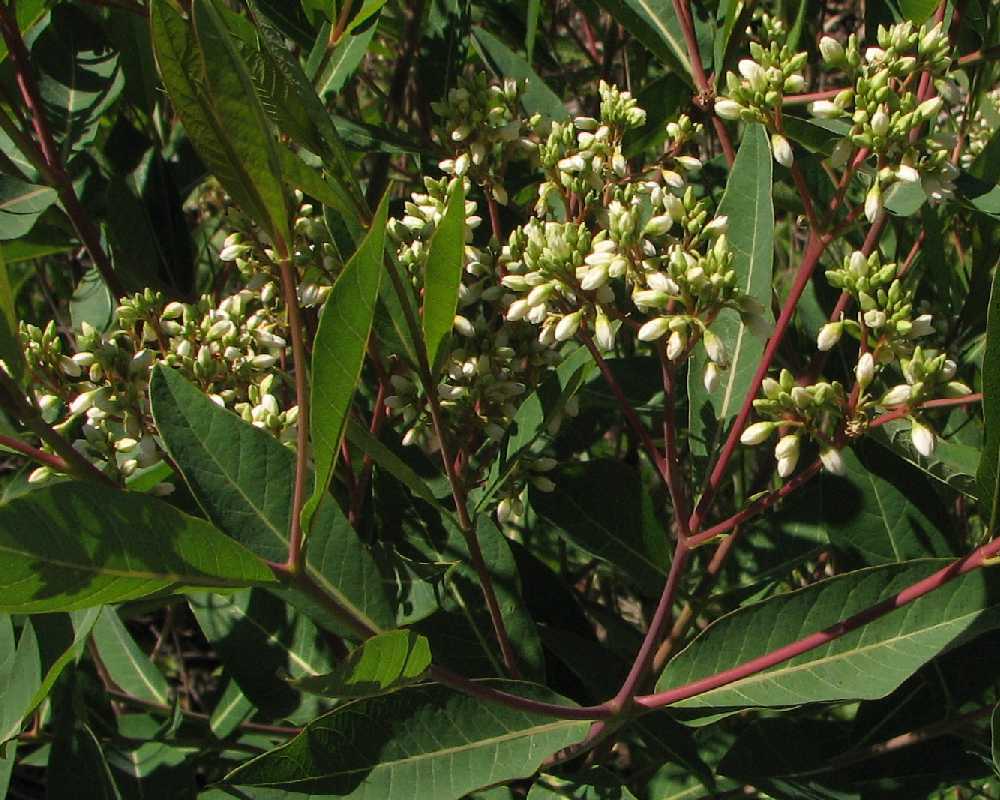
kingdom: Plantae
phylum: Tracheophyta
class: Magnoliopsida
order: Gentianales
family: Apocynaceae
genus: Apocynum
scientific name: Apocynum cannabinum
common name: Hemp dogbane
